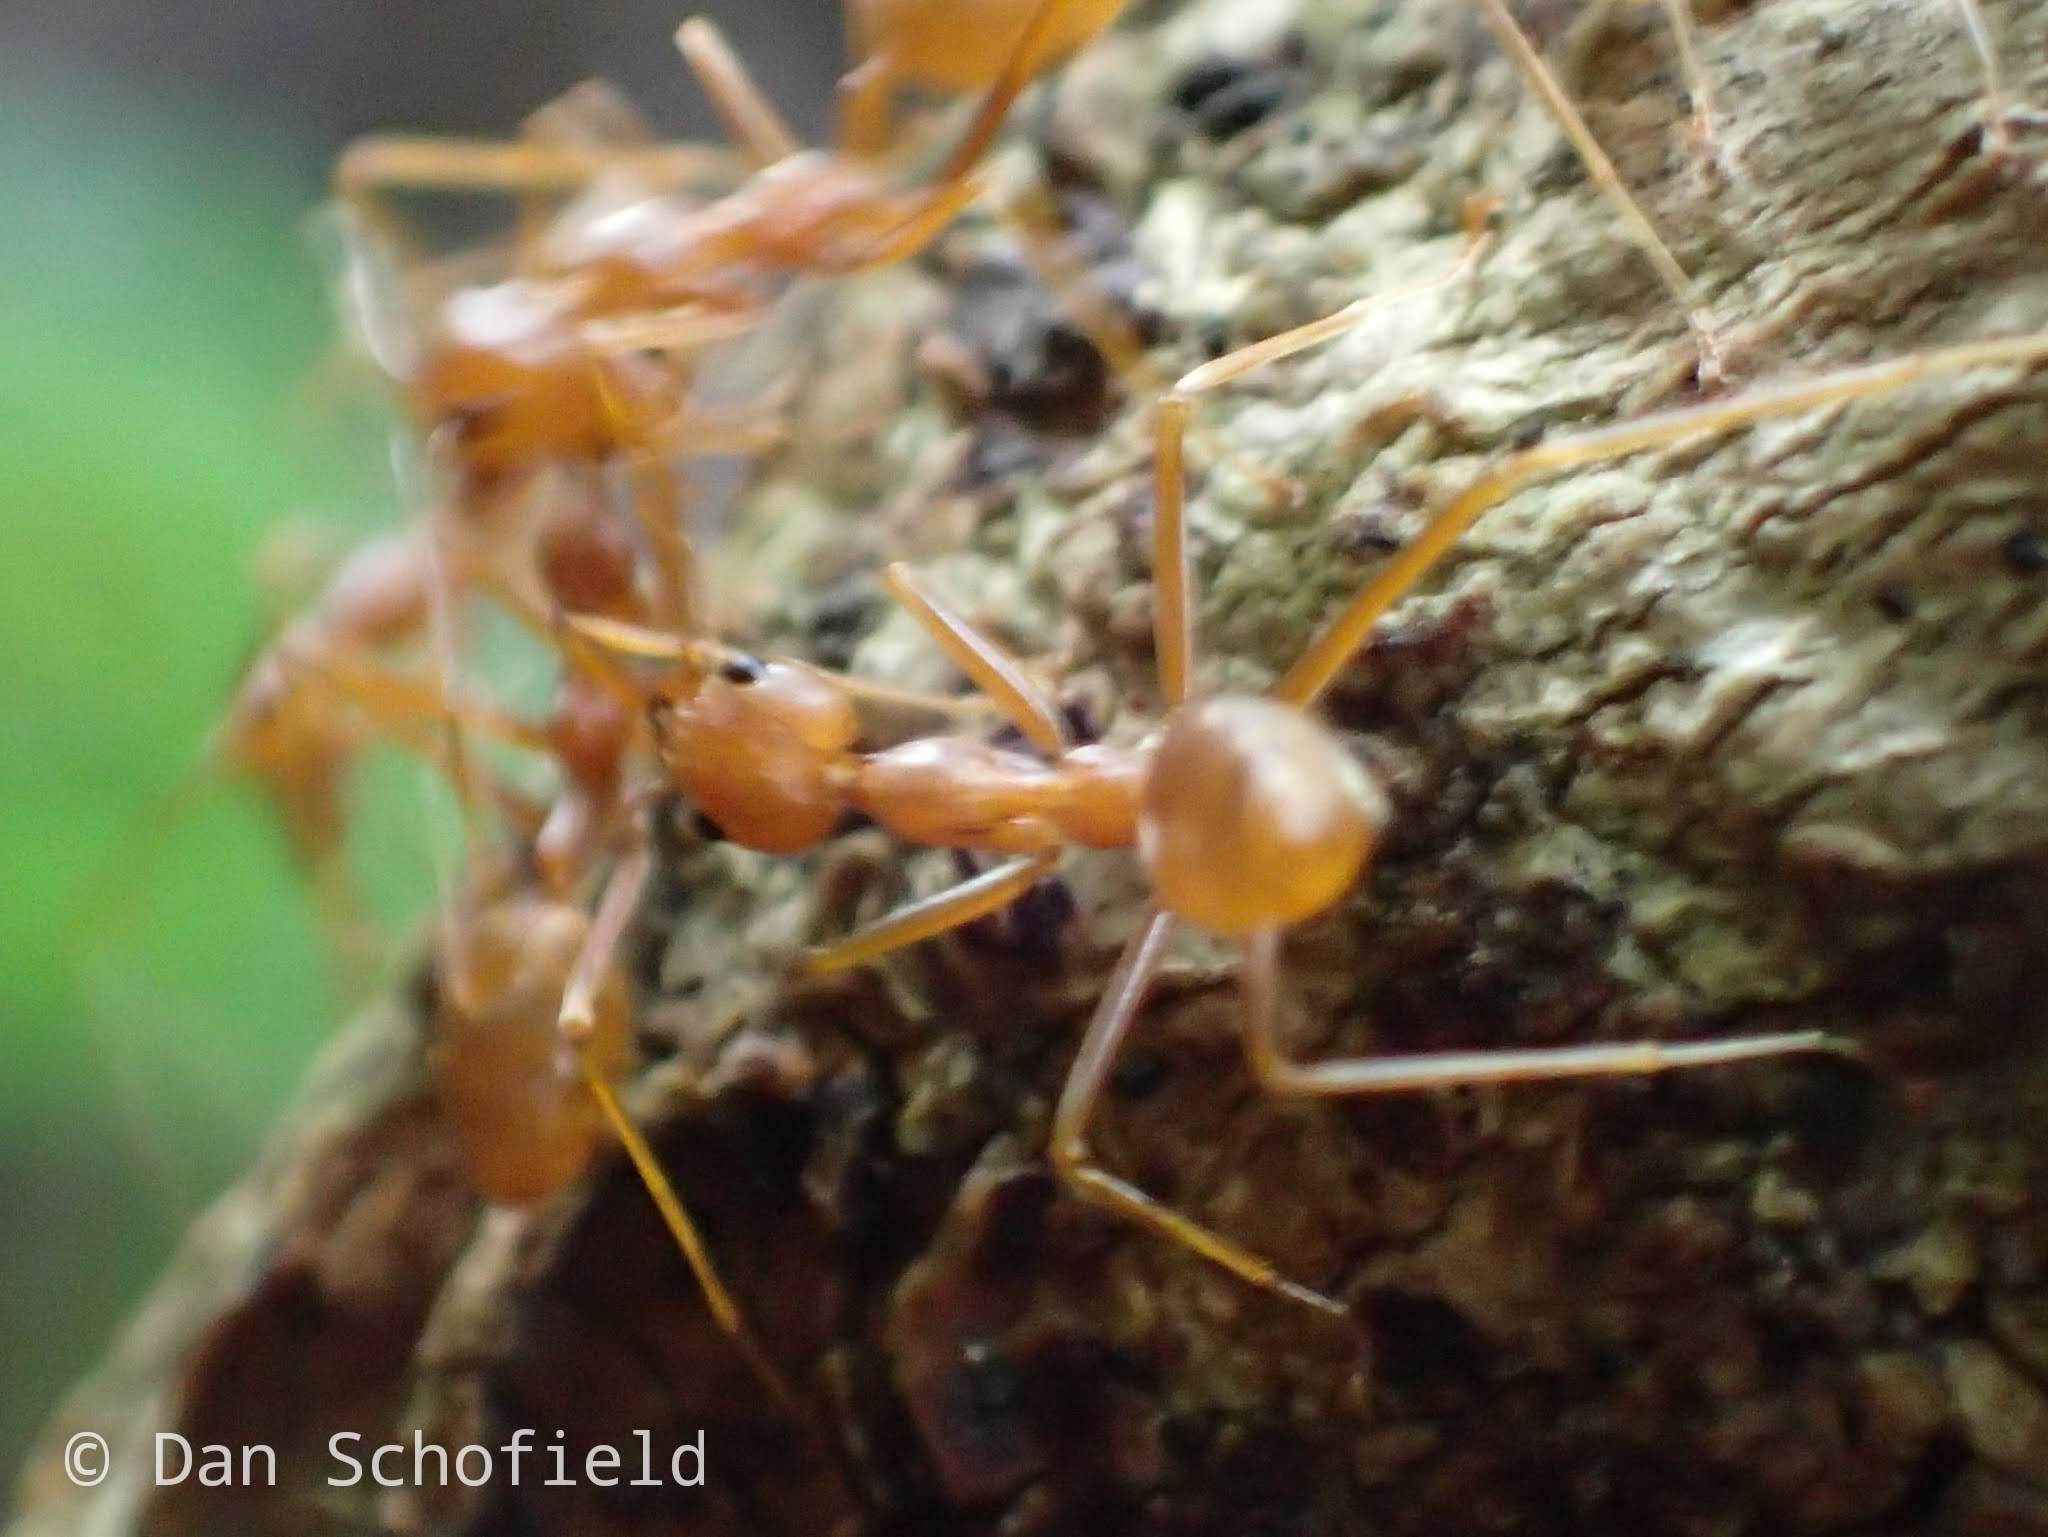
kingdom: Animalia
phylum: Arthropoda
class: Insecta
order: Hymenoptera
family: Formicidae
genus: Oecophylla
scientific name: Oecophylla smaragdina
